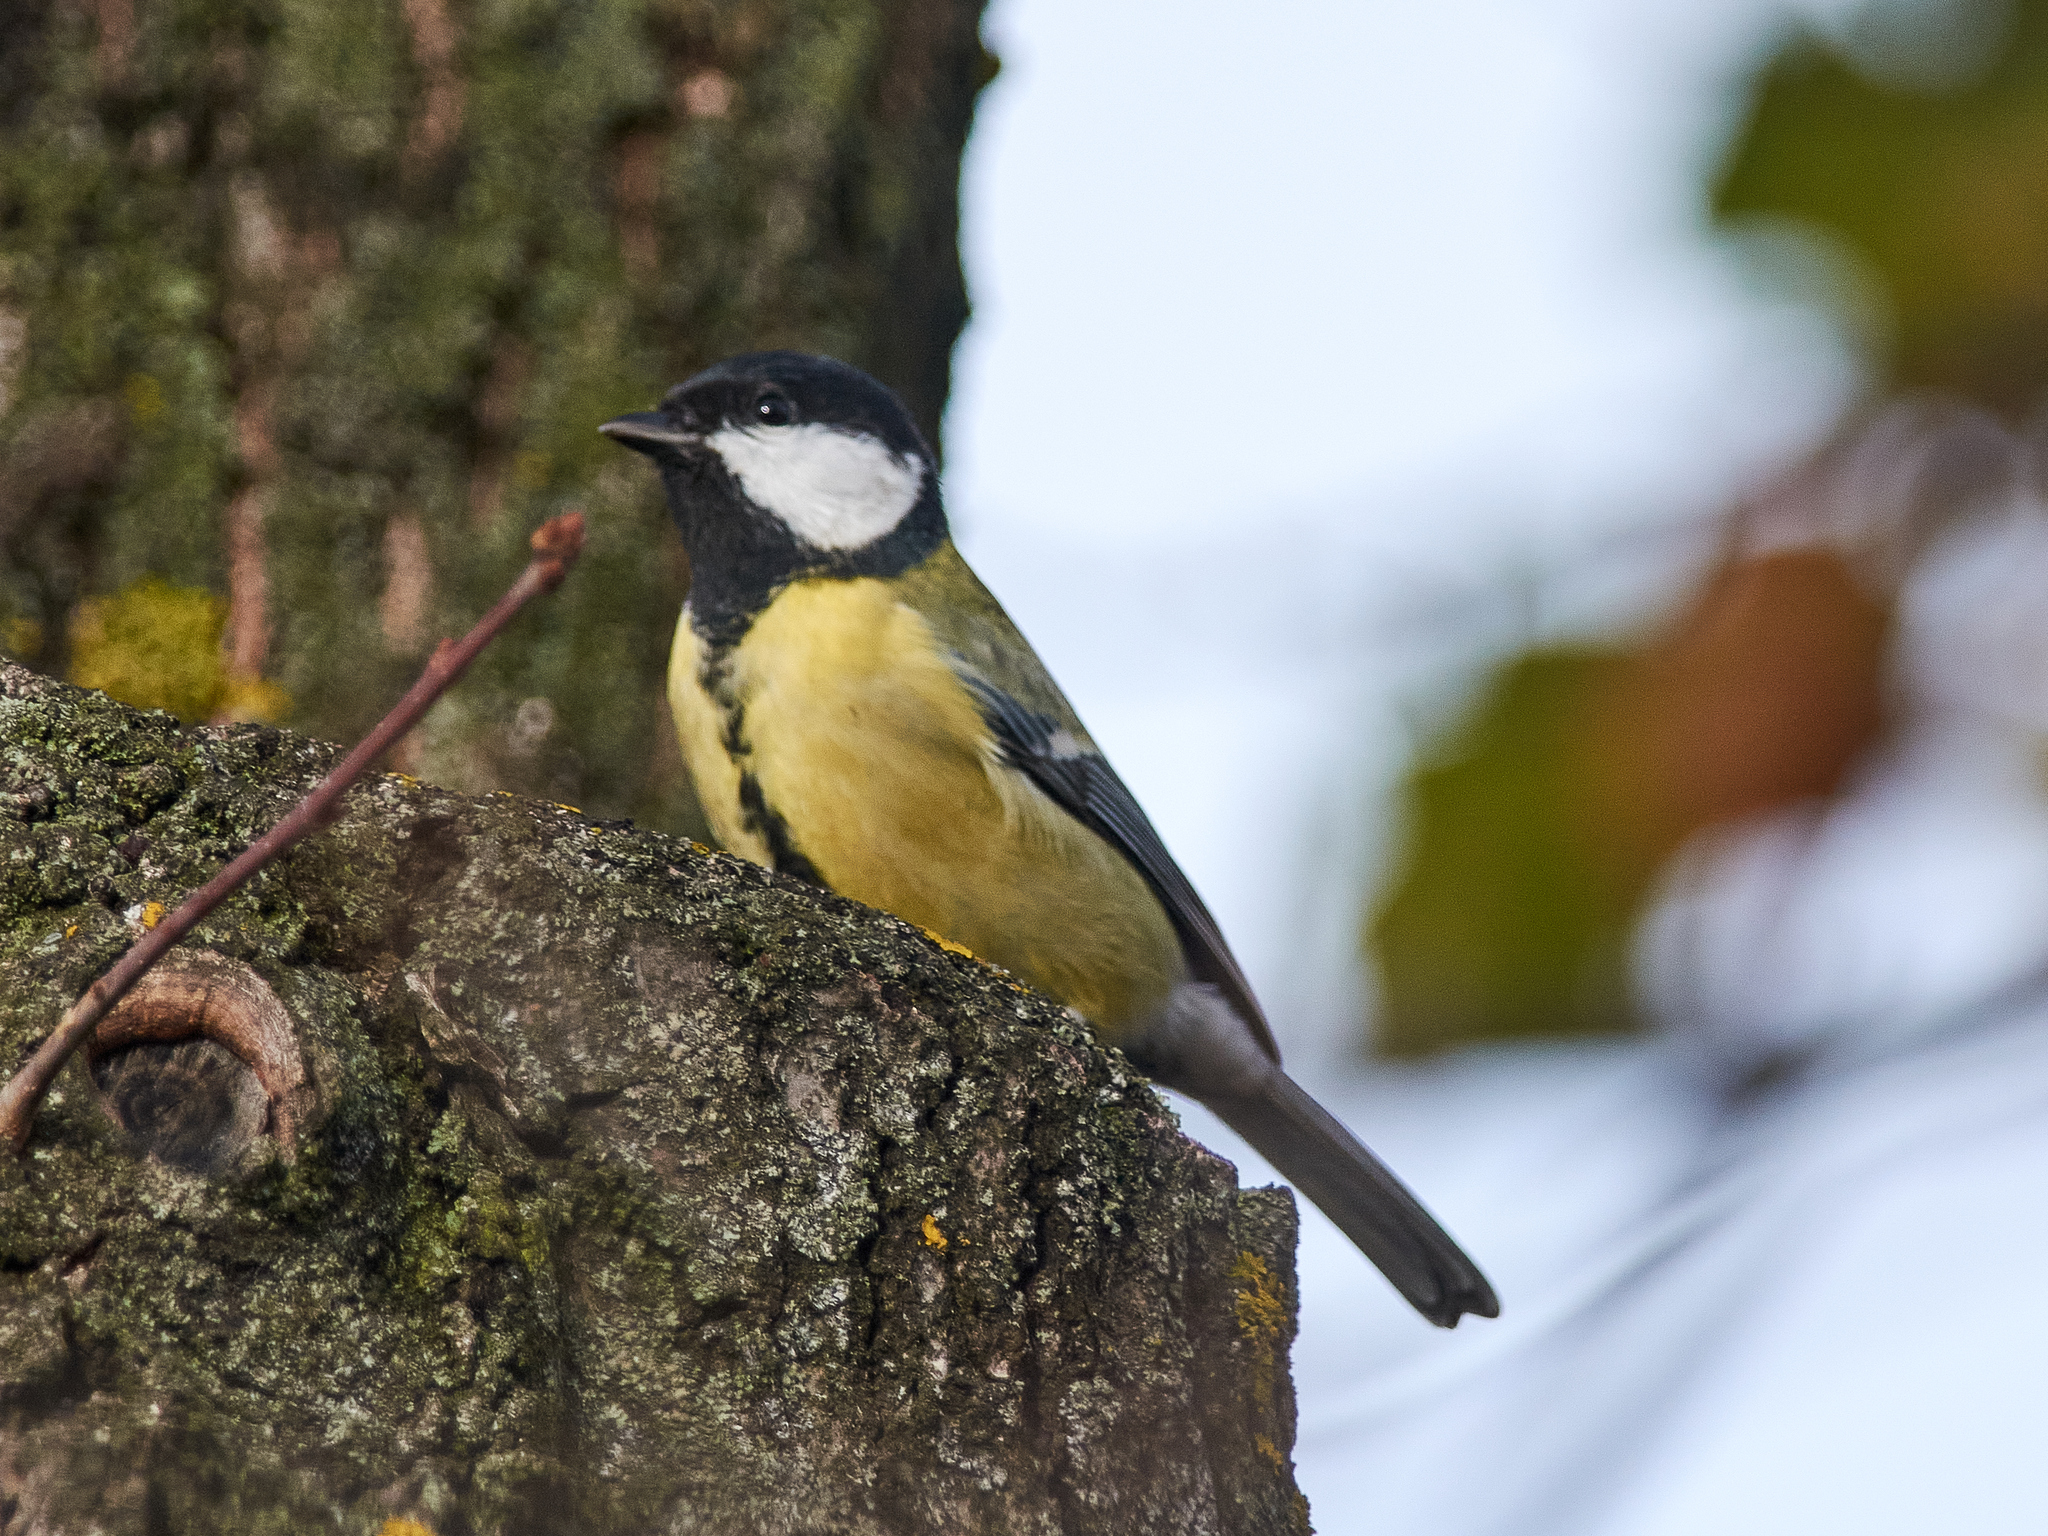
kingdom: Animalia
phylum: Chordata
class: Aves
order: Passeriformes
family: Paridae
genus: Parus
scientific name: Parus major
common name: Great tit
